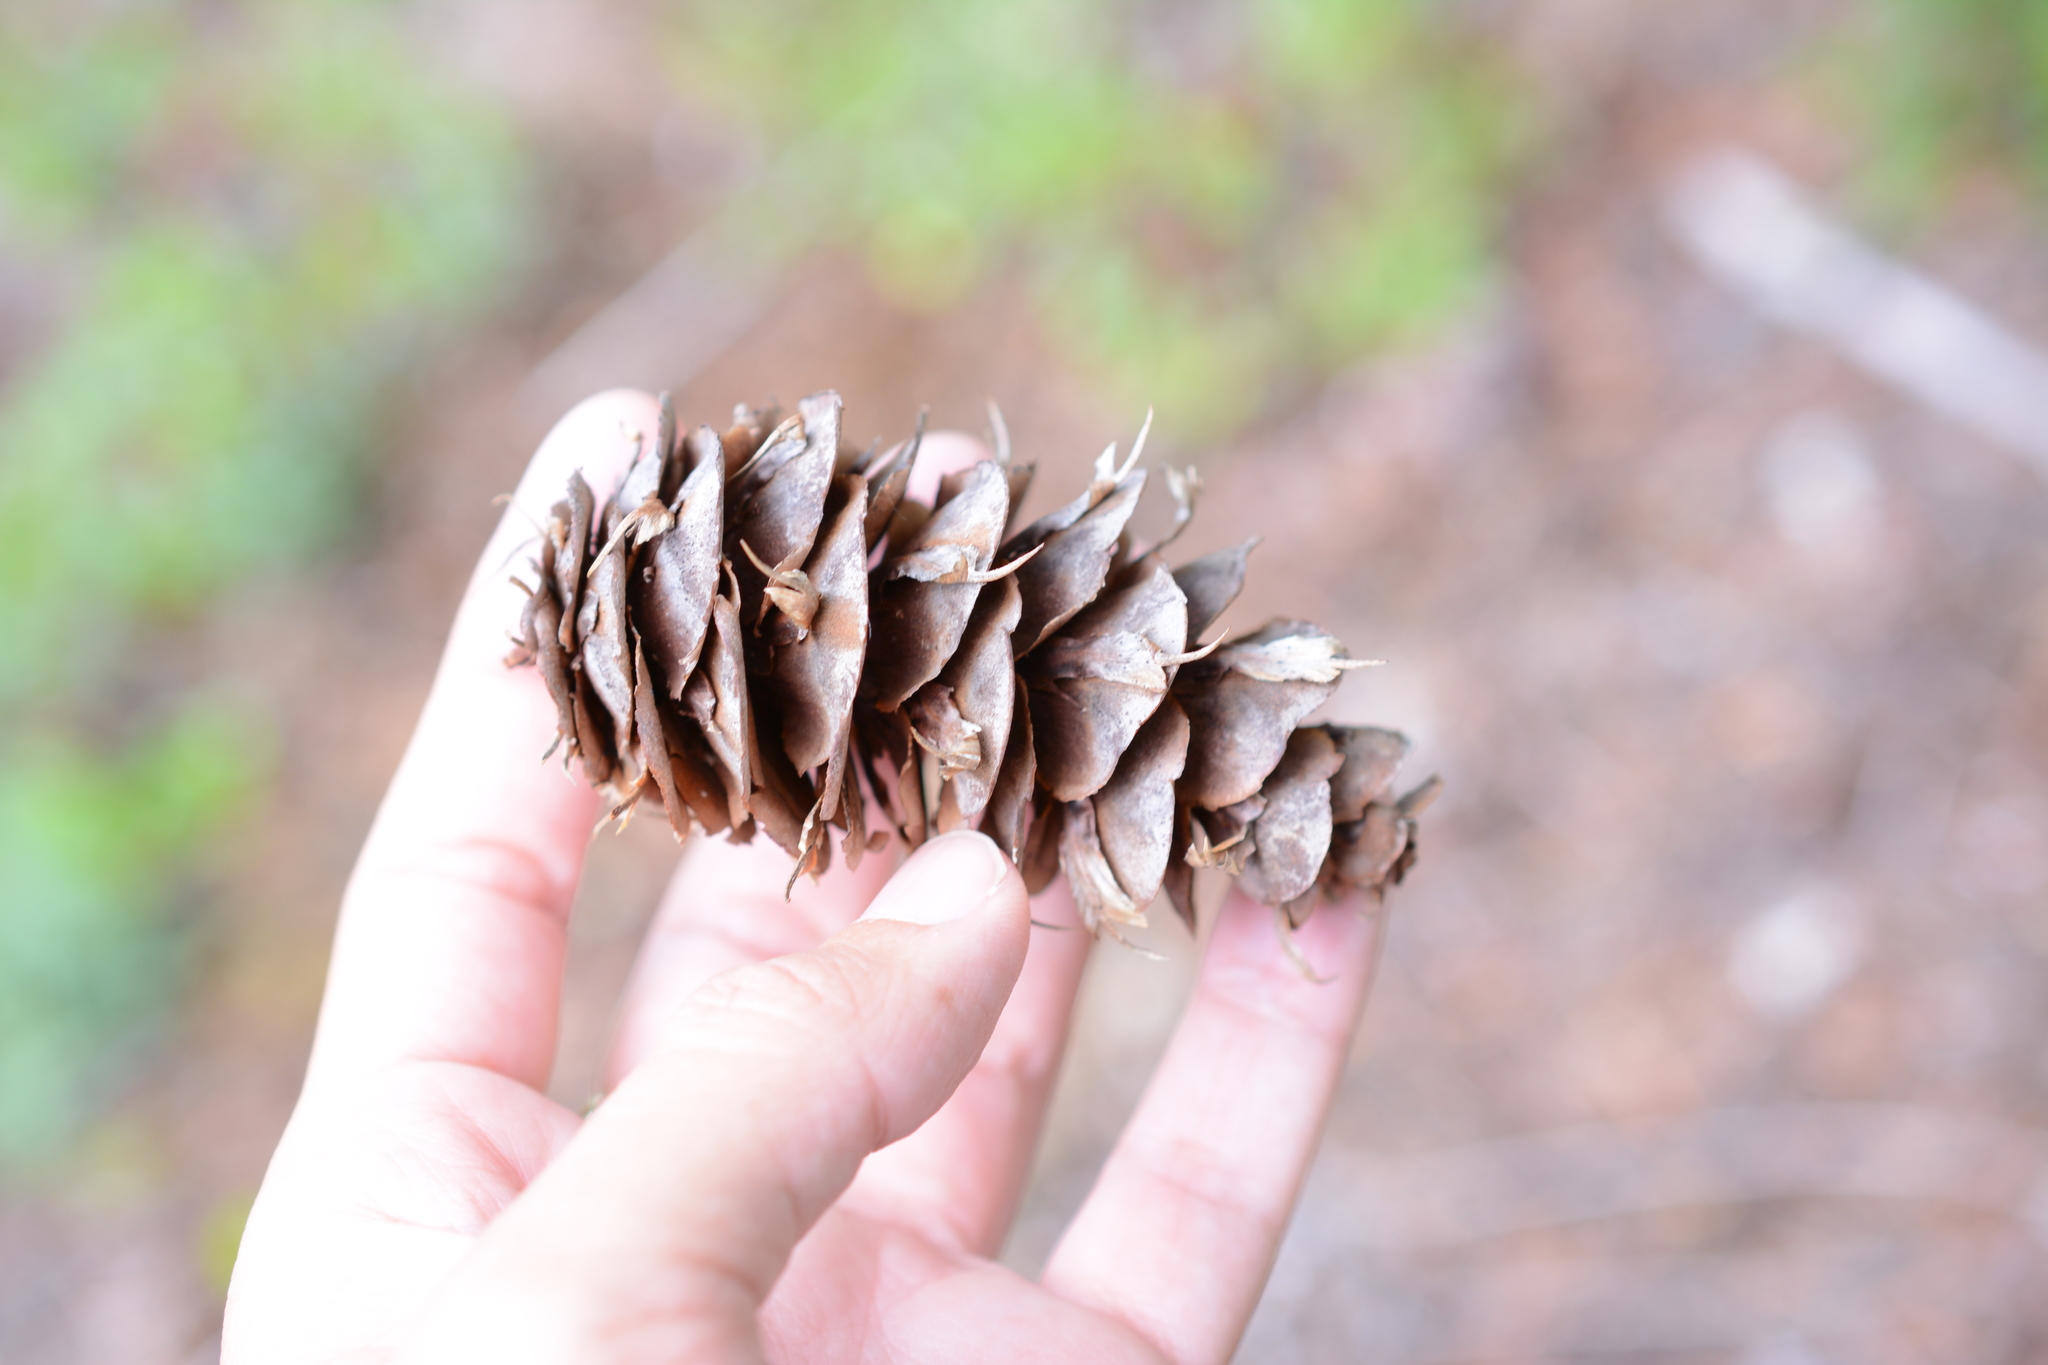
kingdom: Plantae
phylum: Tracheophyta
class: Pinopsida
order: Pinales
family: Pinaceae
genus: Pseudotsuga
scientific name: Pseudotsuga menziesii
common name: Douglas fir
